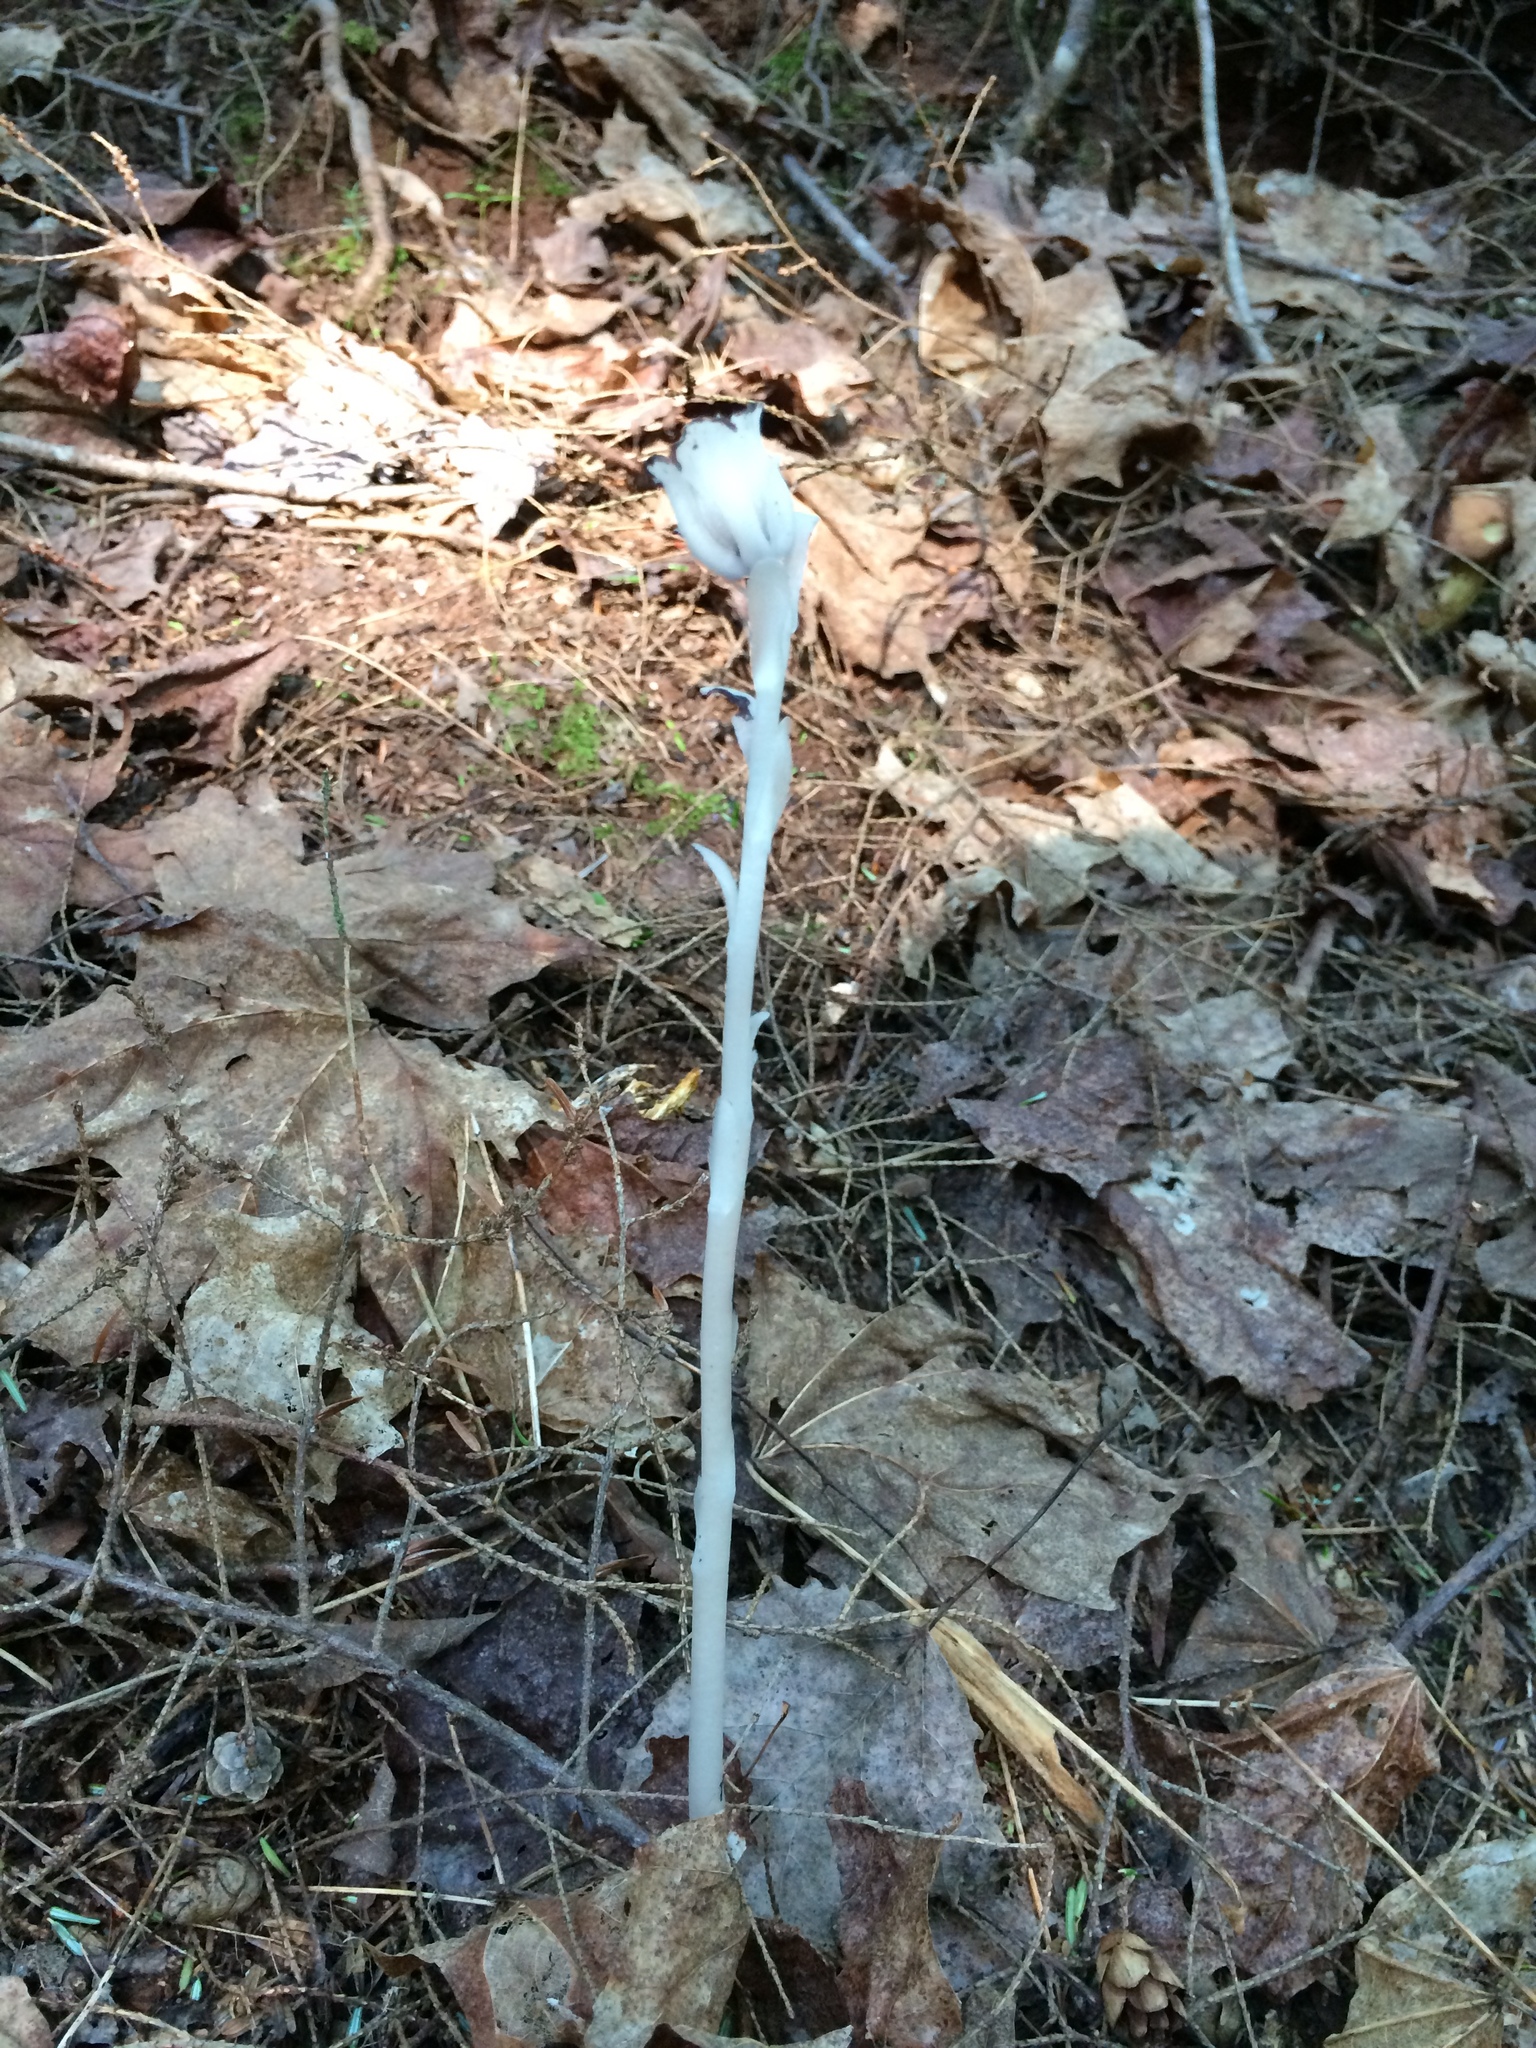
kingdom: Plantae
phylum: Tracheophyta
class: Magnoliopsida
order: Ericales
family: Ericaceae
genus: Monotropa
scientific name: Monotropa uniflora
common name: Convulsion root
